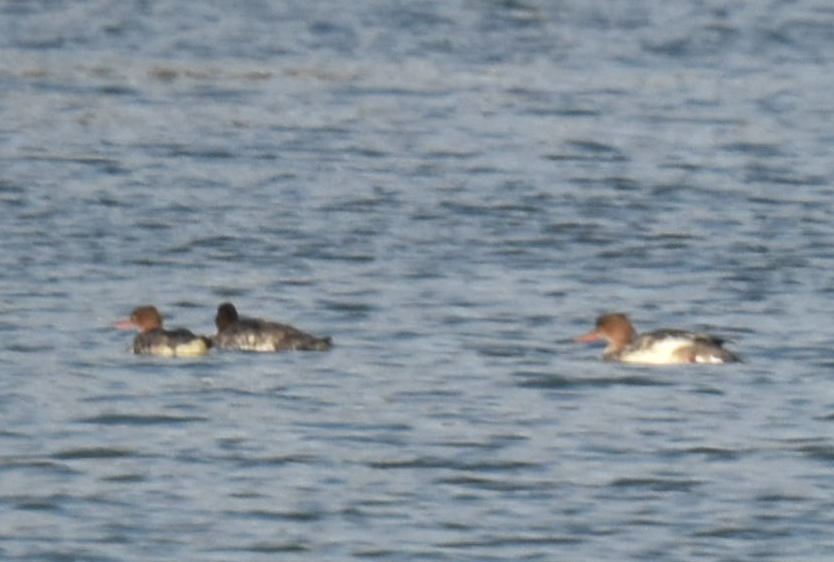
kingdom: Animalia
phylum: Chordata
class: Aves
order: Anseriformes
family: Anatidae
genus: Mergus
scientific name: Mergus serrator
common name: Red-breasted merganser
